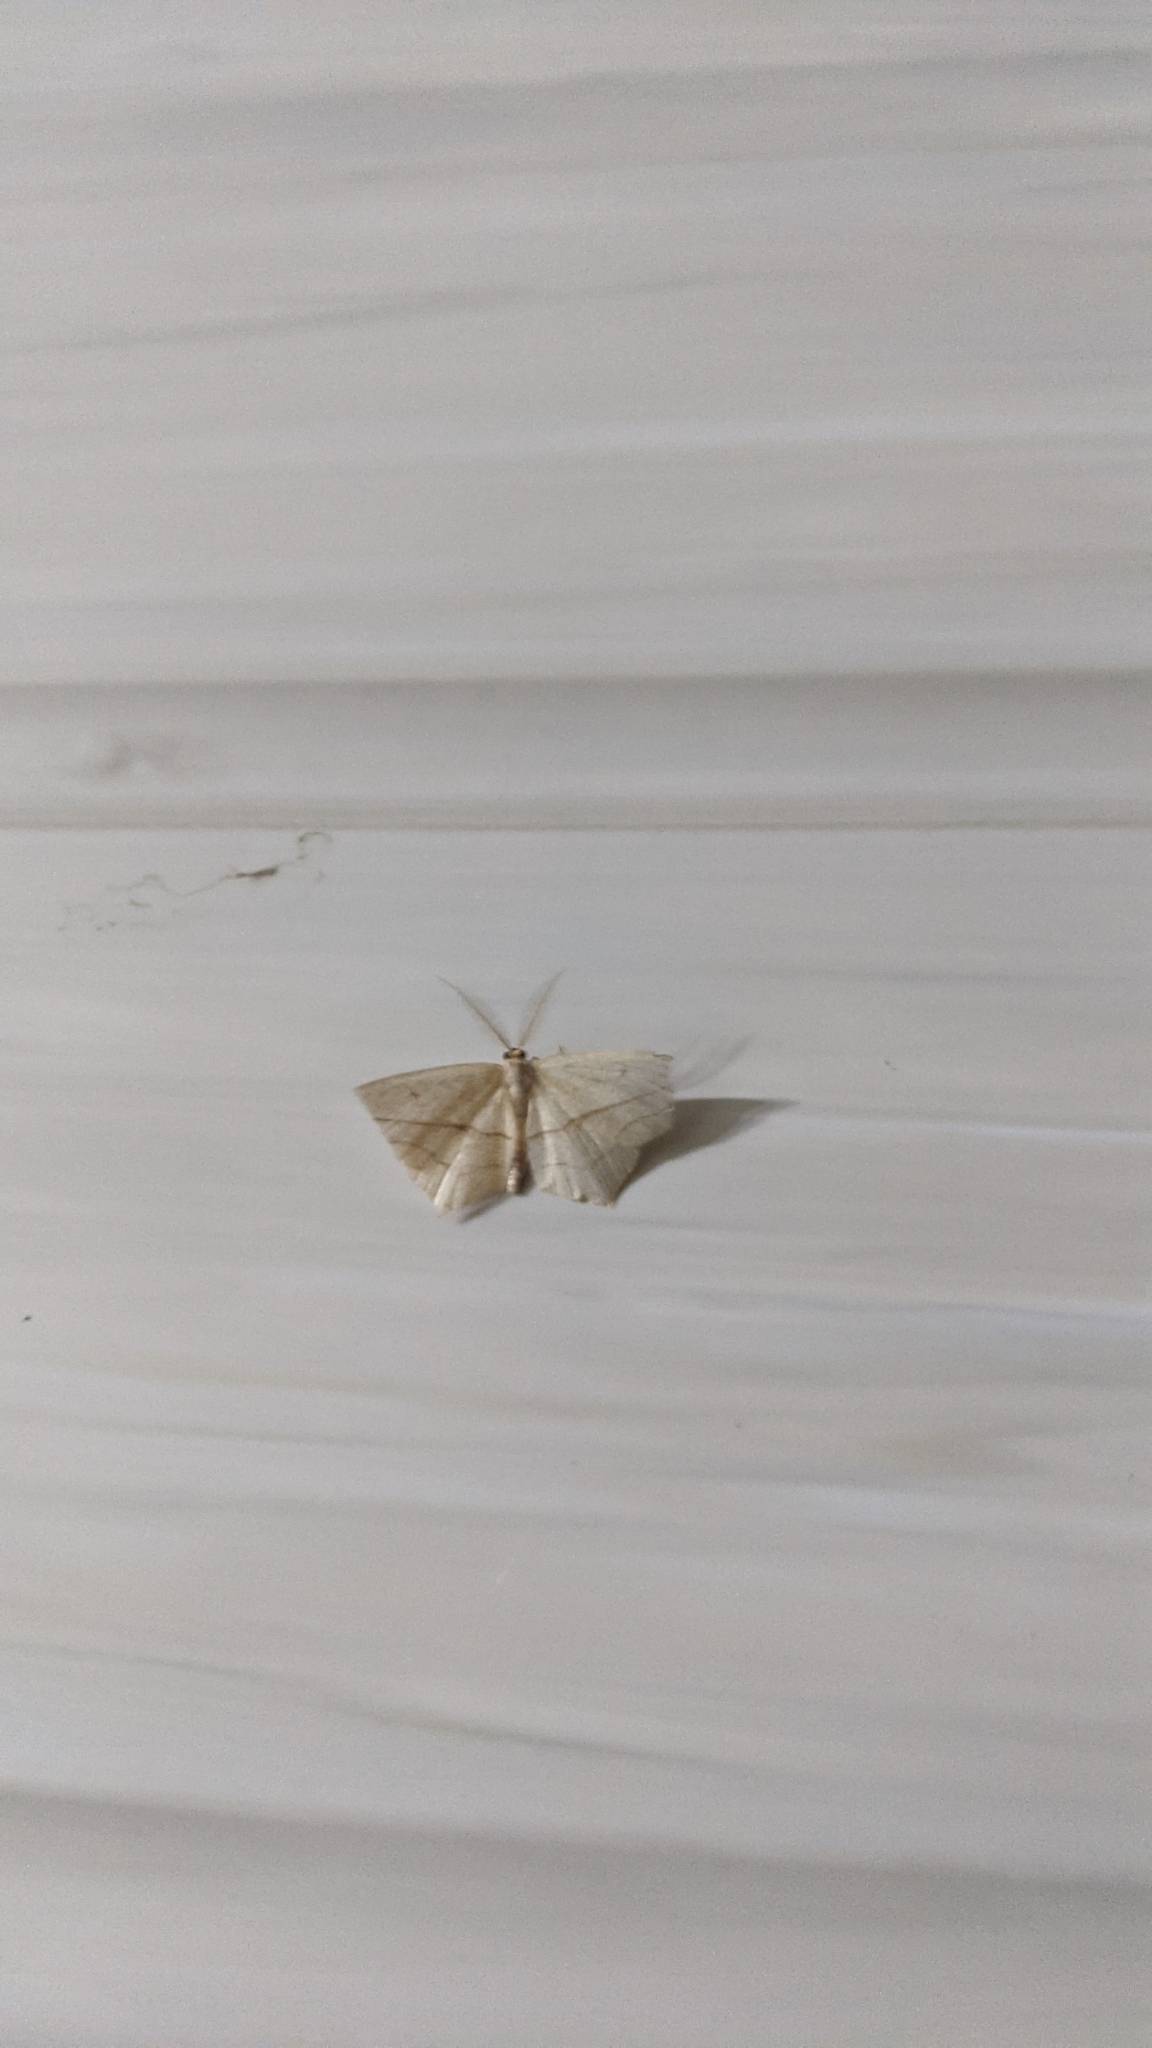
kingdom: Animalia
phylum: Arthropoda
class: Insecta
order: Lepidoptera
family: Geometridae
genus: Timandra
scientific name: Timandra comae
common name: Blood-vein
